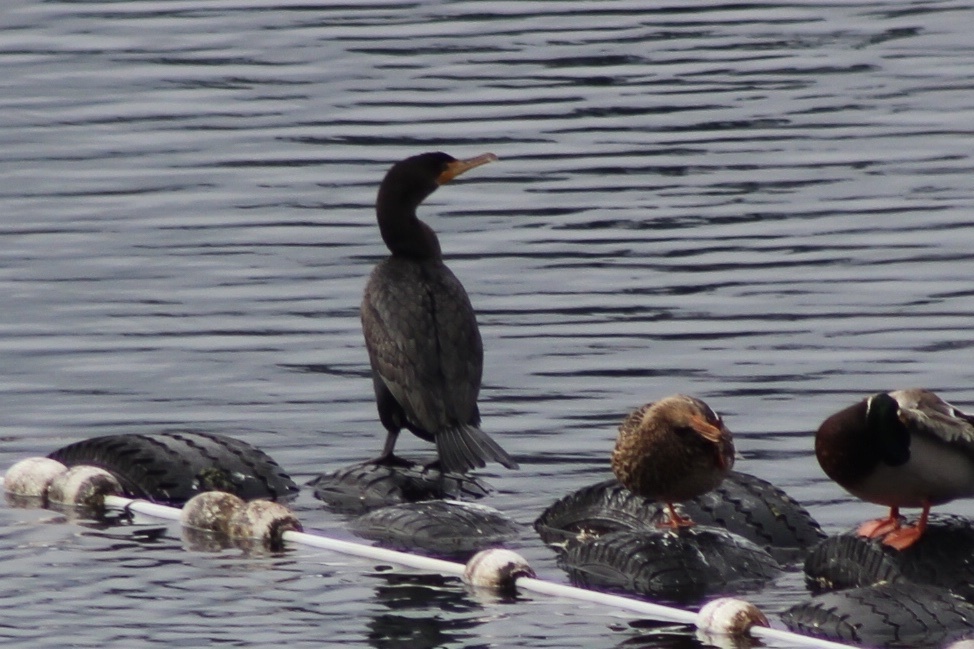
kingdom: Animalia
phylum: Chordata
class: Aves
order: Suliformes
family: Phalacrocoracidae
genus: Phalacrocorax
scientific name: Phalacrocorax auritus
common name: Double-crested cormorant
